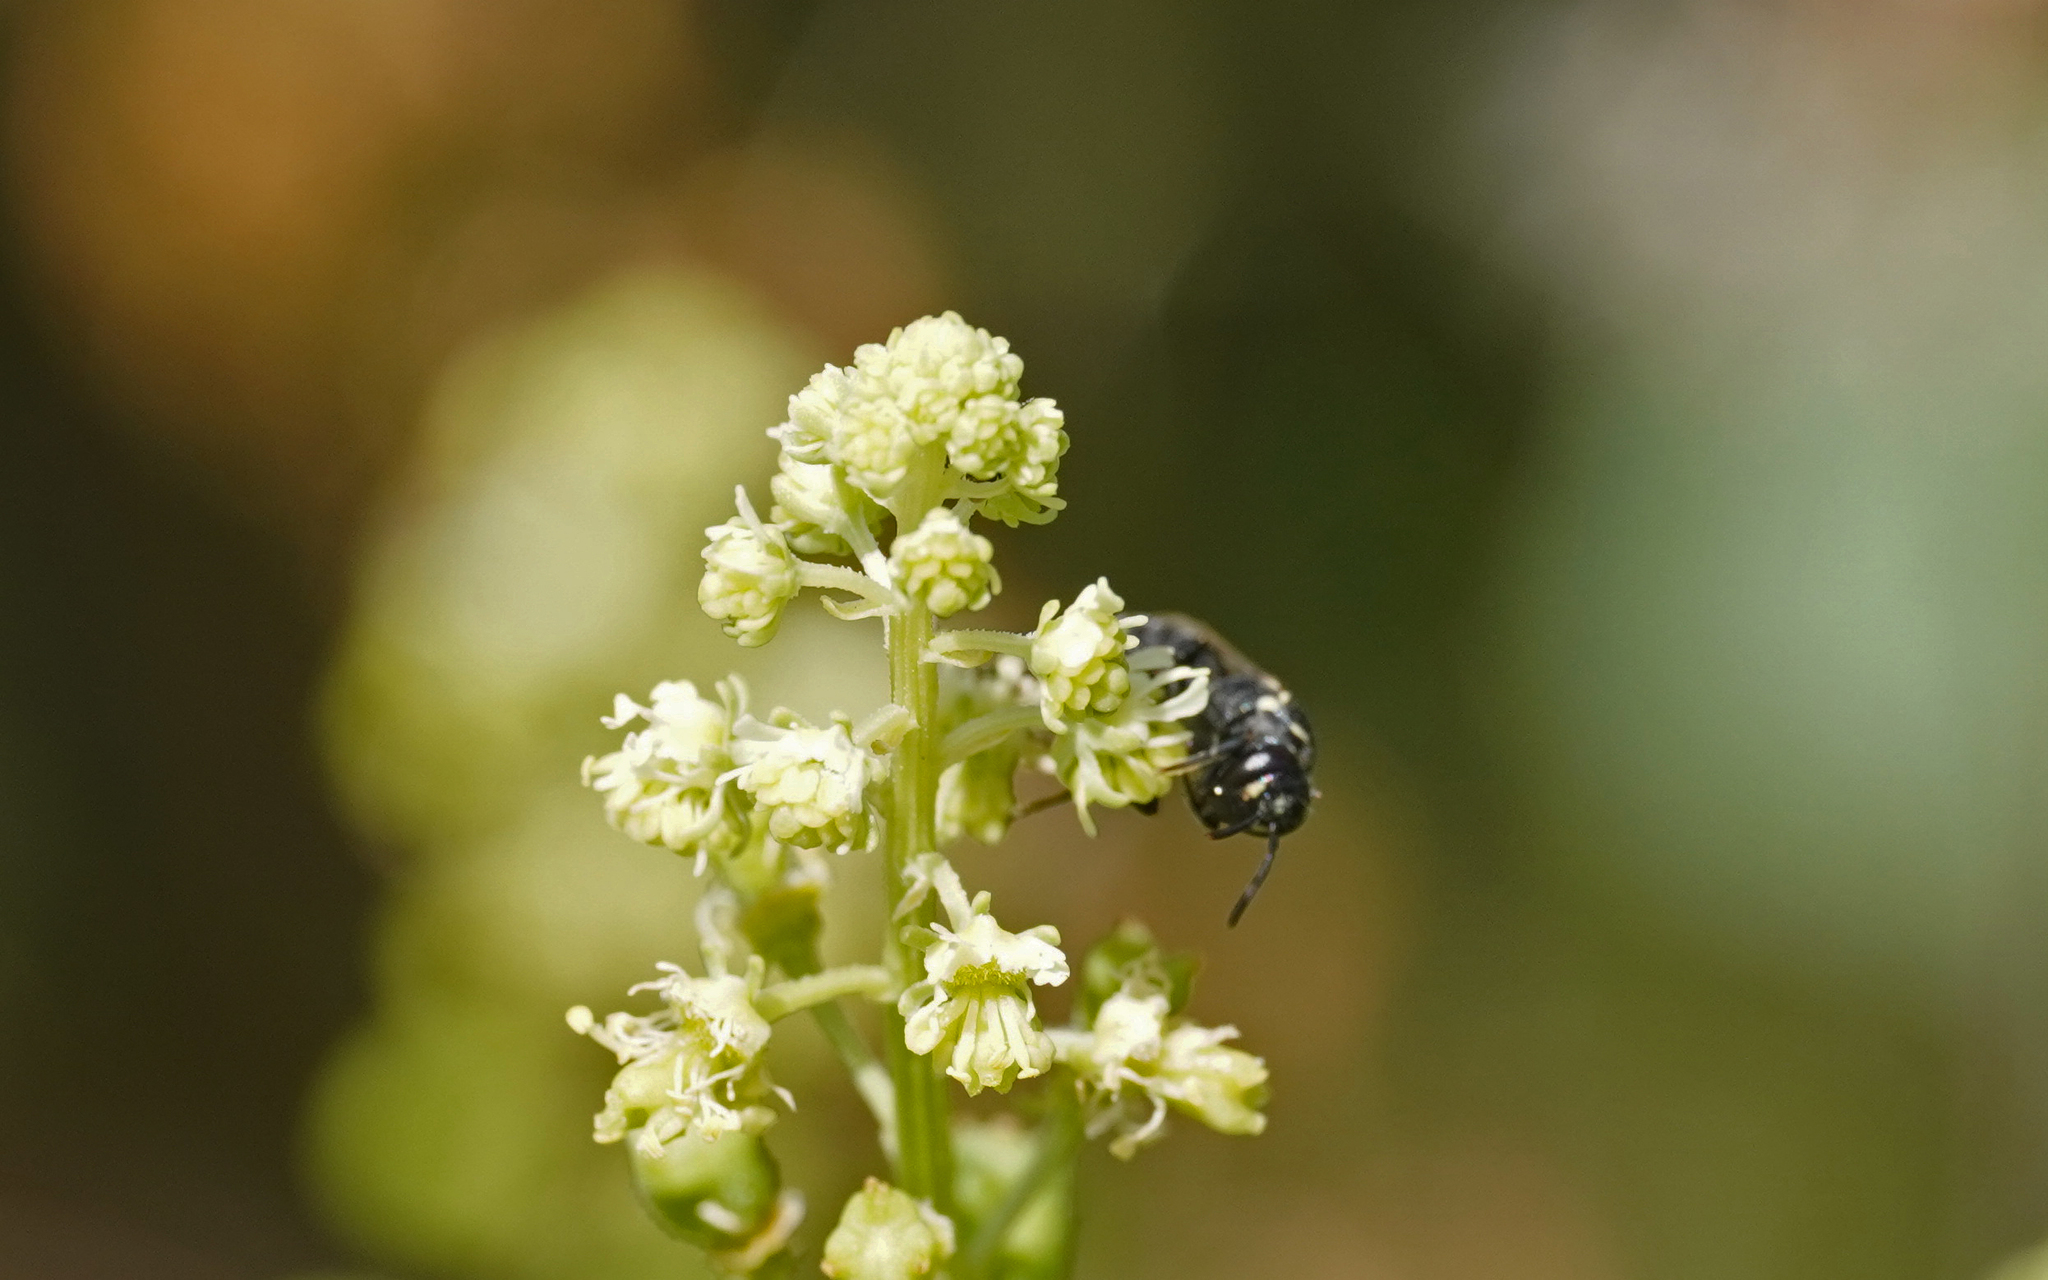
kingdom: Animalia
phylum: Arthropoda
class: Insecta
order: Hymenoptera
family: Colletidae
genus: Hylaeus
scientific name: Hylaeus signatus
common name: Large yellow-face bee
